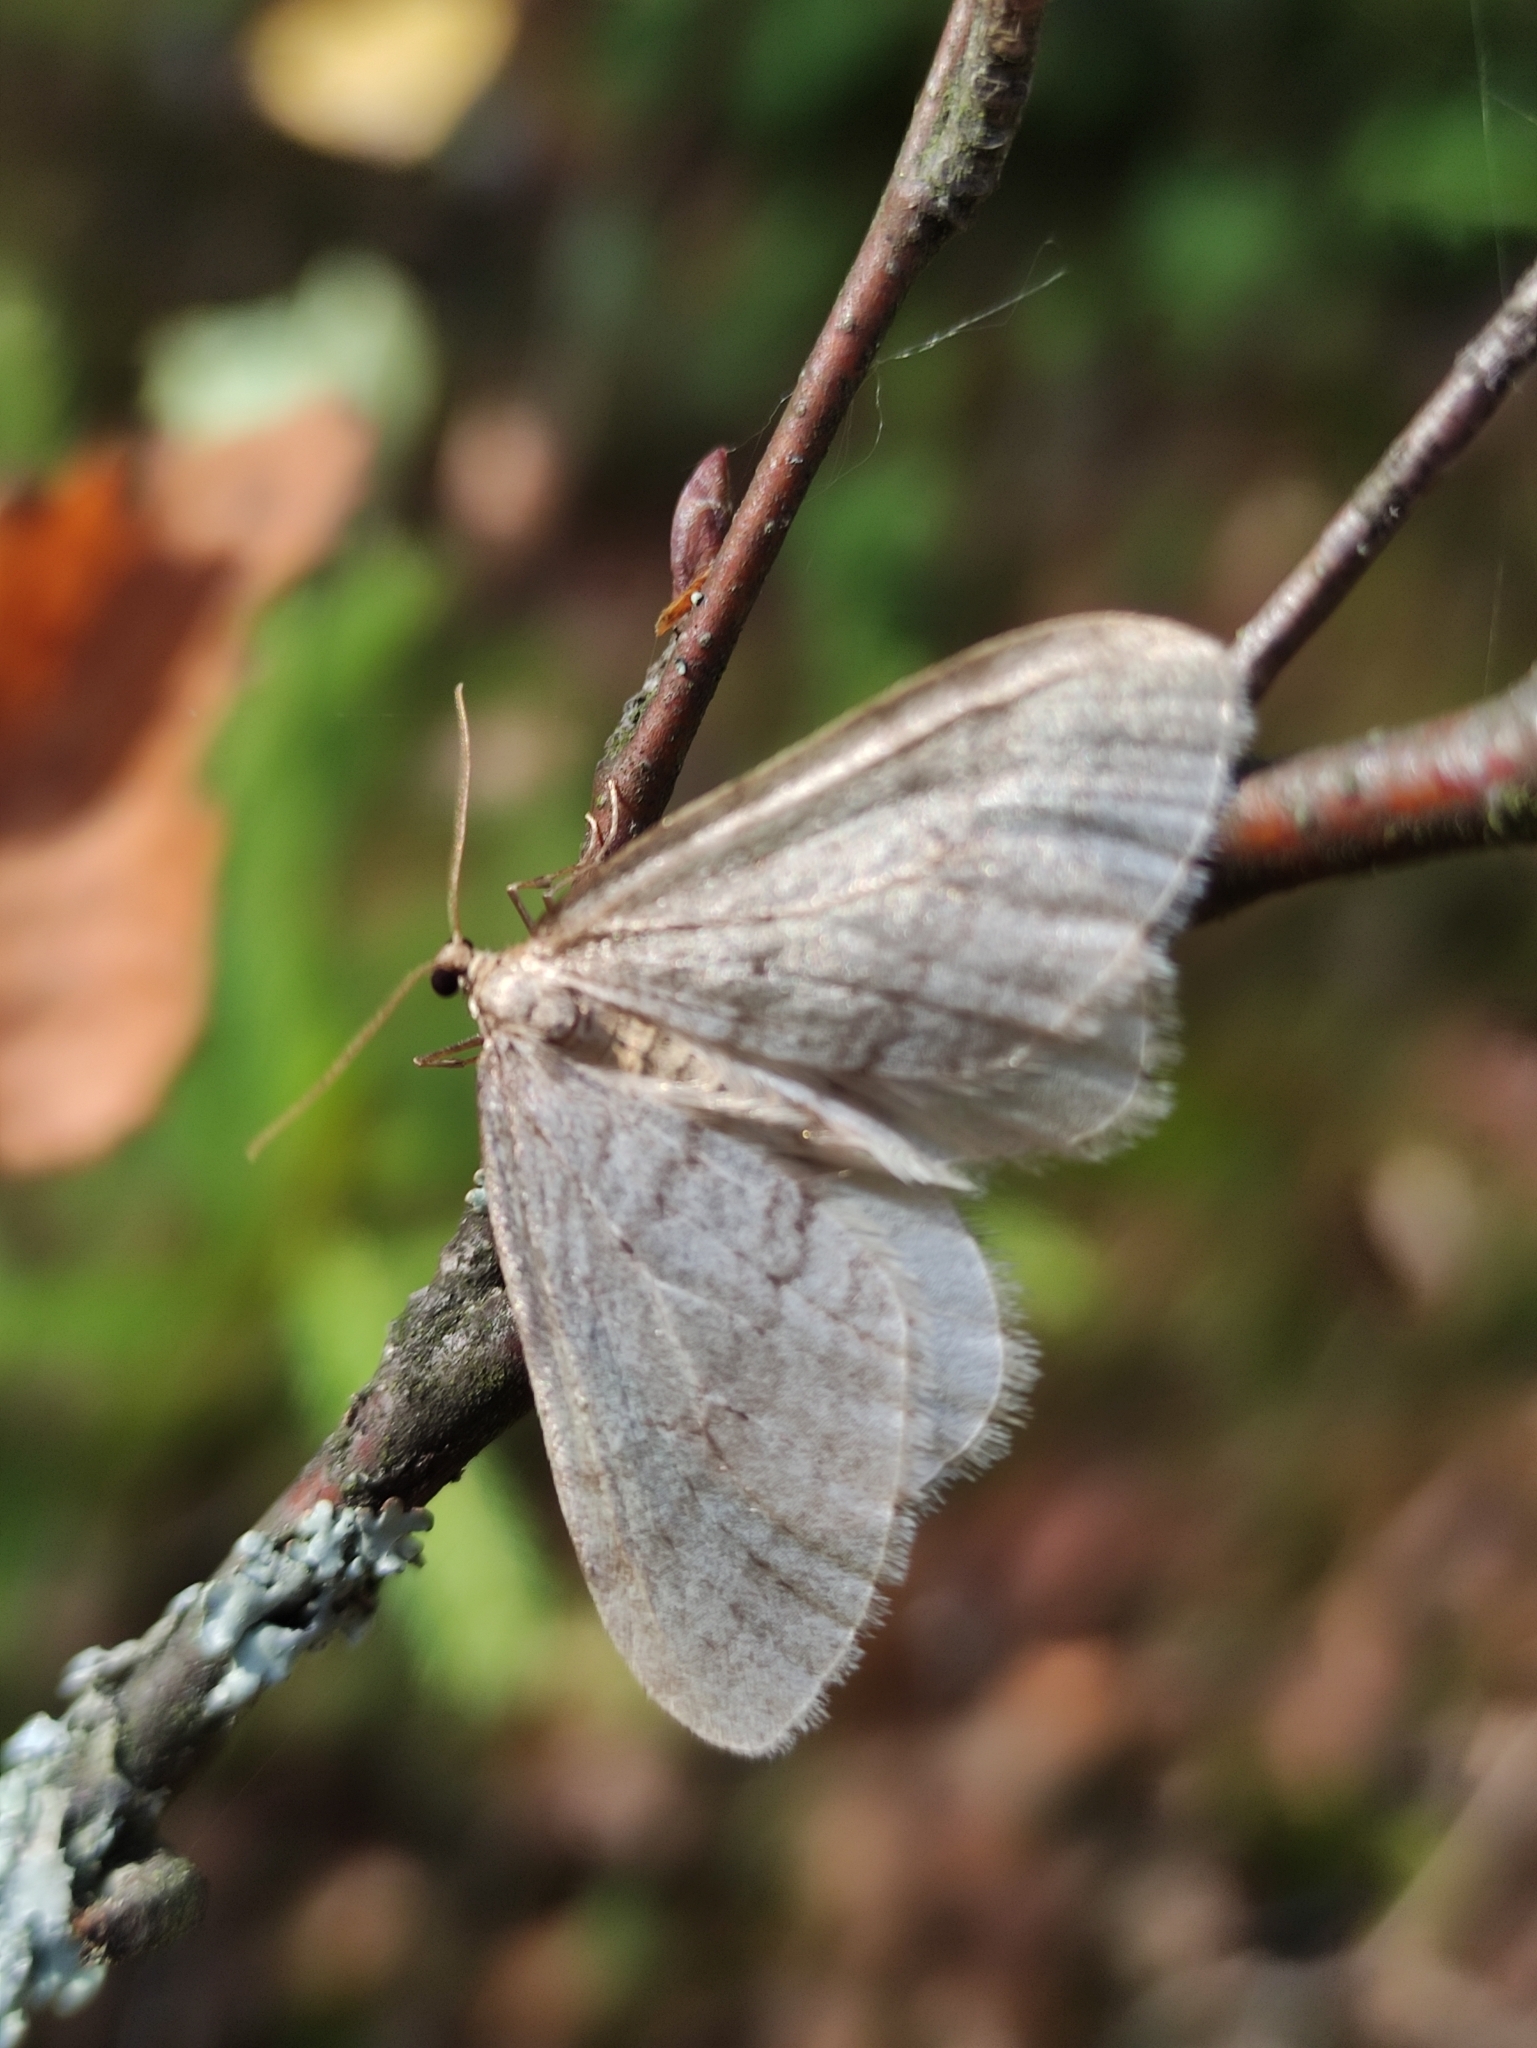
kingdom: Animalia
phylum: Arthropoda
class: Insecta
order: Lepidoptera
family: Geometridae
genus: Operophtera
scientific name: Operophtera brumata
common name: Winter moth
